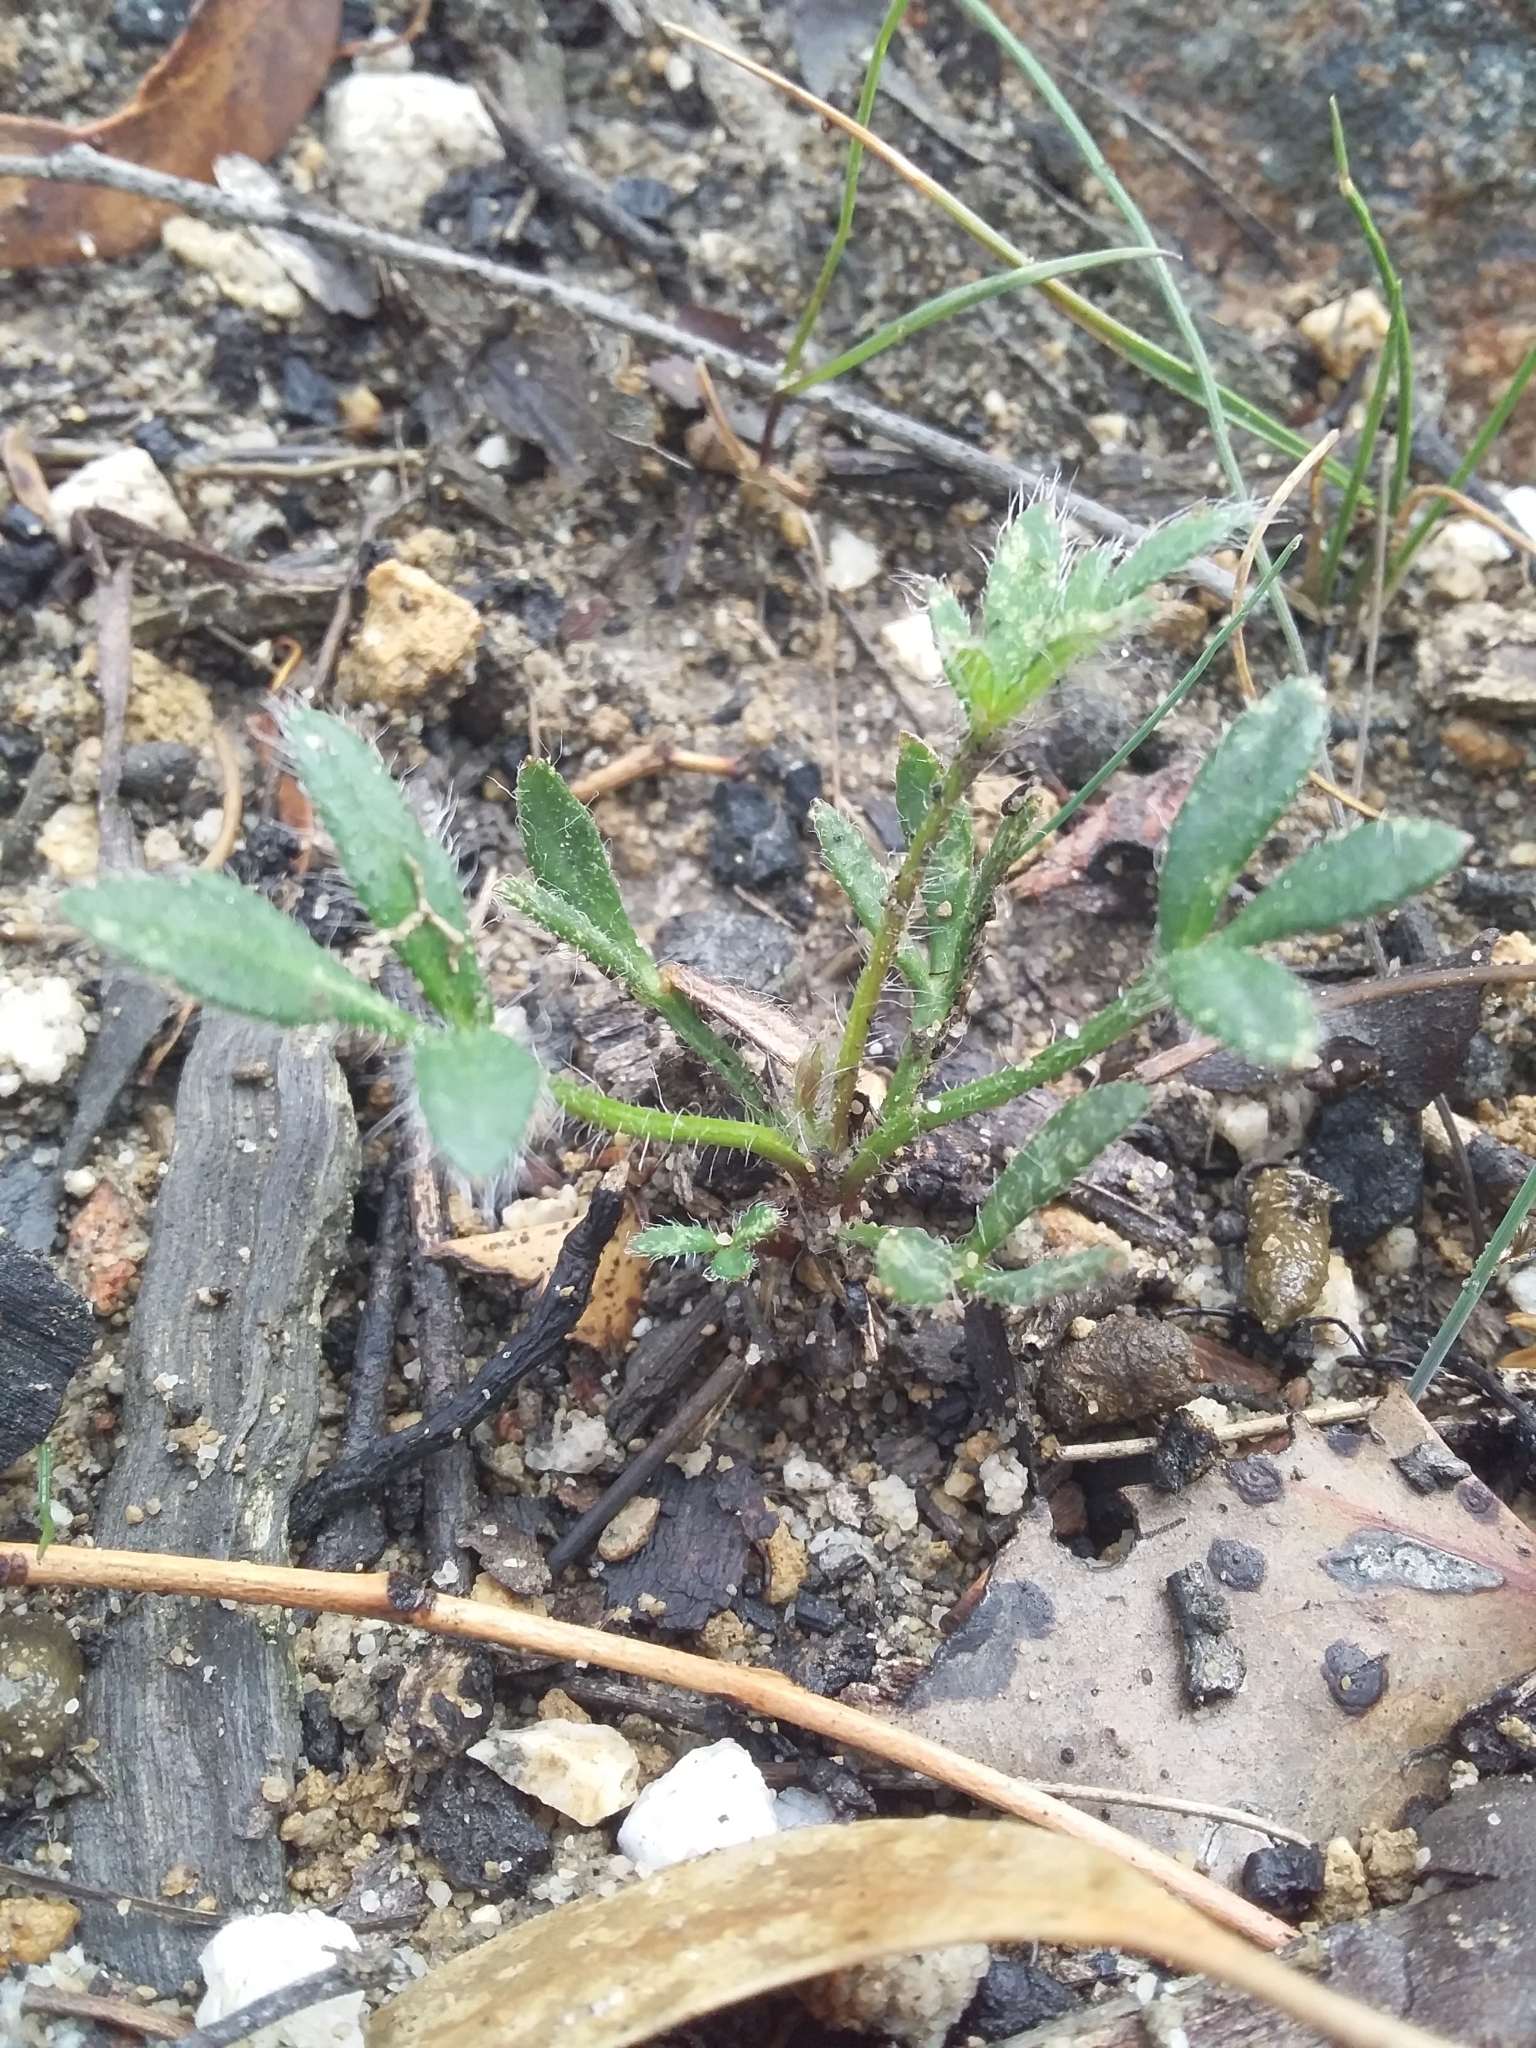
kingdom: Plantae
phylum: Tracheophyta
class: Magnoliopsida
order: Apiales
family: Apiaceae
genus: Xanthosia
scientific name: Xanthosia huegelii
